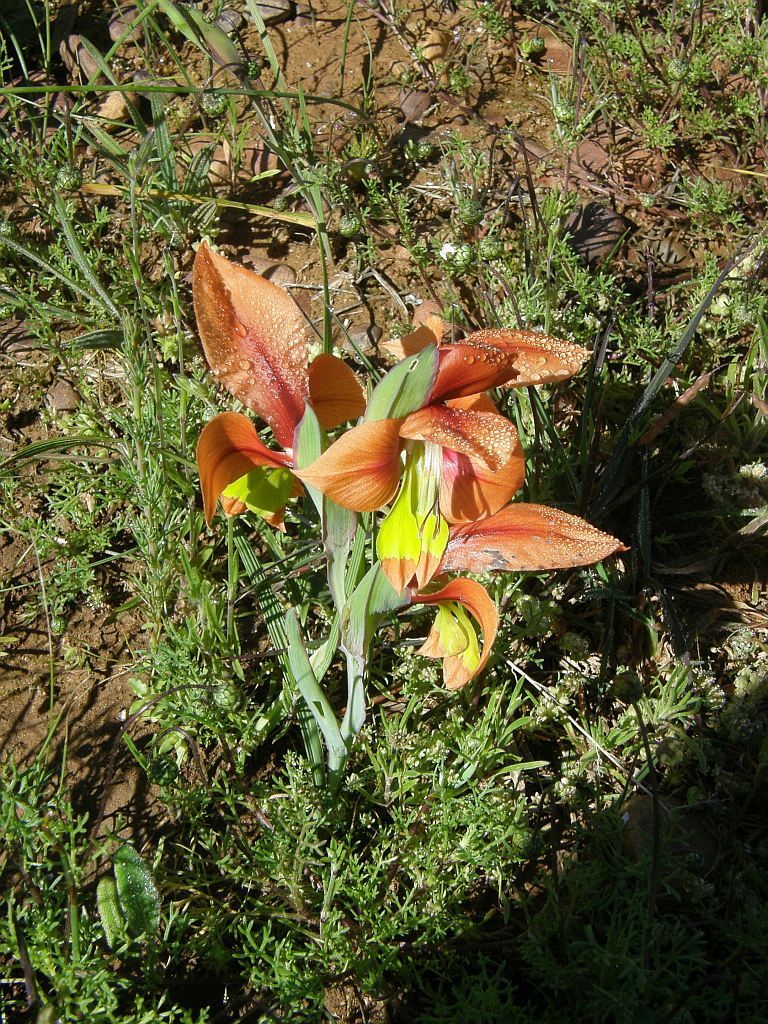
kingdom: Plantae
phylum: Tracheophyta
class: Liliopsida
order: Asparagales
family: Iridaceae
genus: Gladiolus
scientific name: Gladiolus alatus
